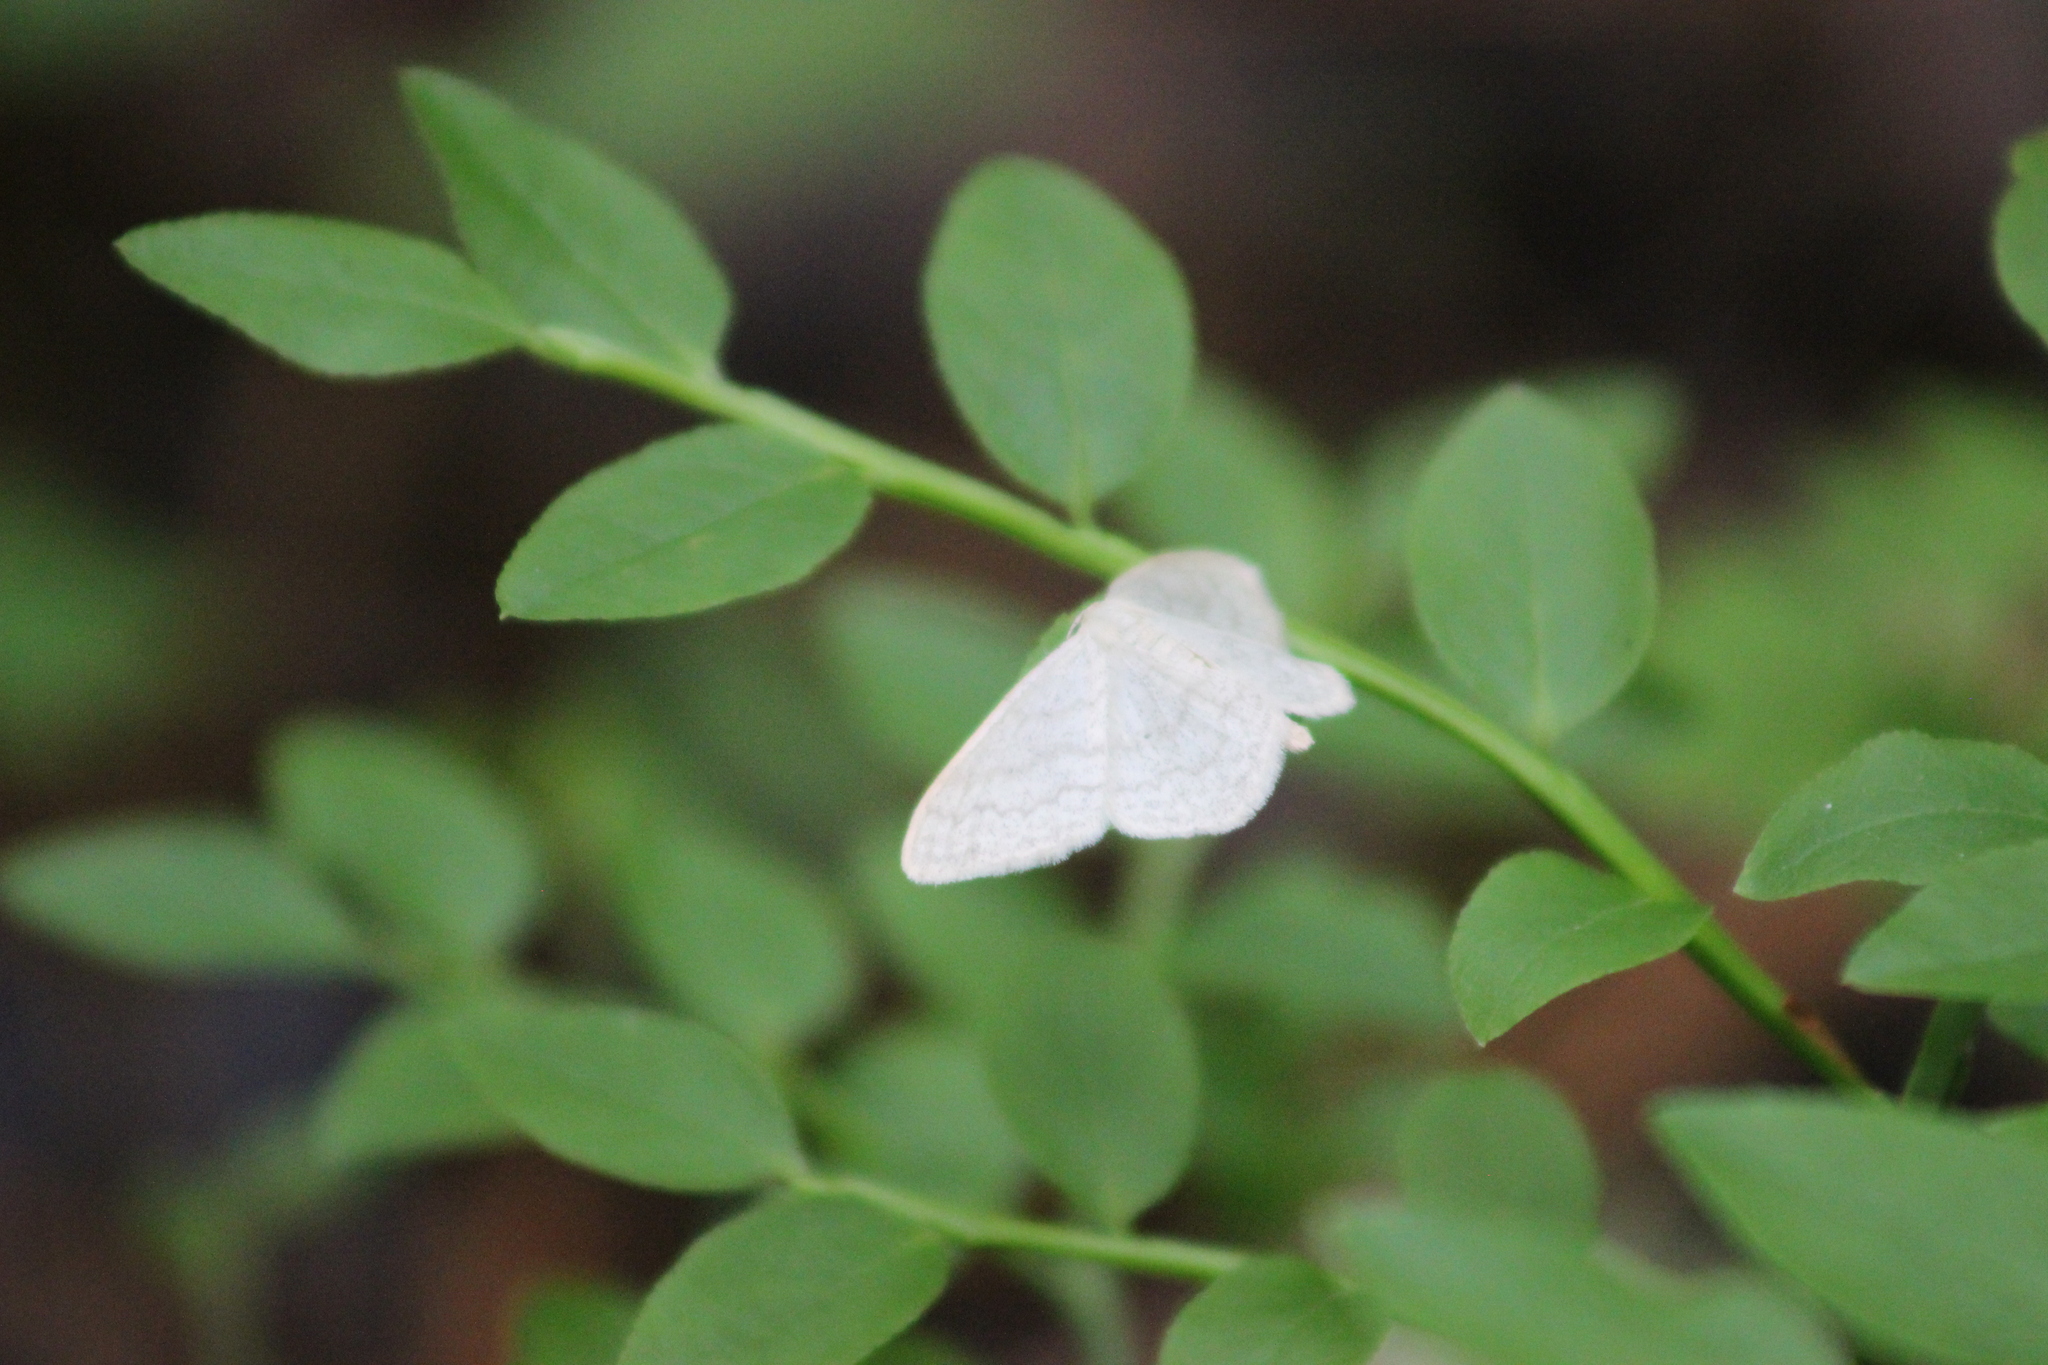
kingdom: Animalia
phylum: Arthropoda
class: Insecta
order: Lepidoptera
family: Geometridae
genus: Scopula
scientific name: Scopula floslactata
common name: Cream wave
